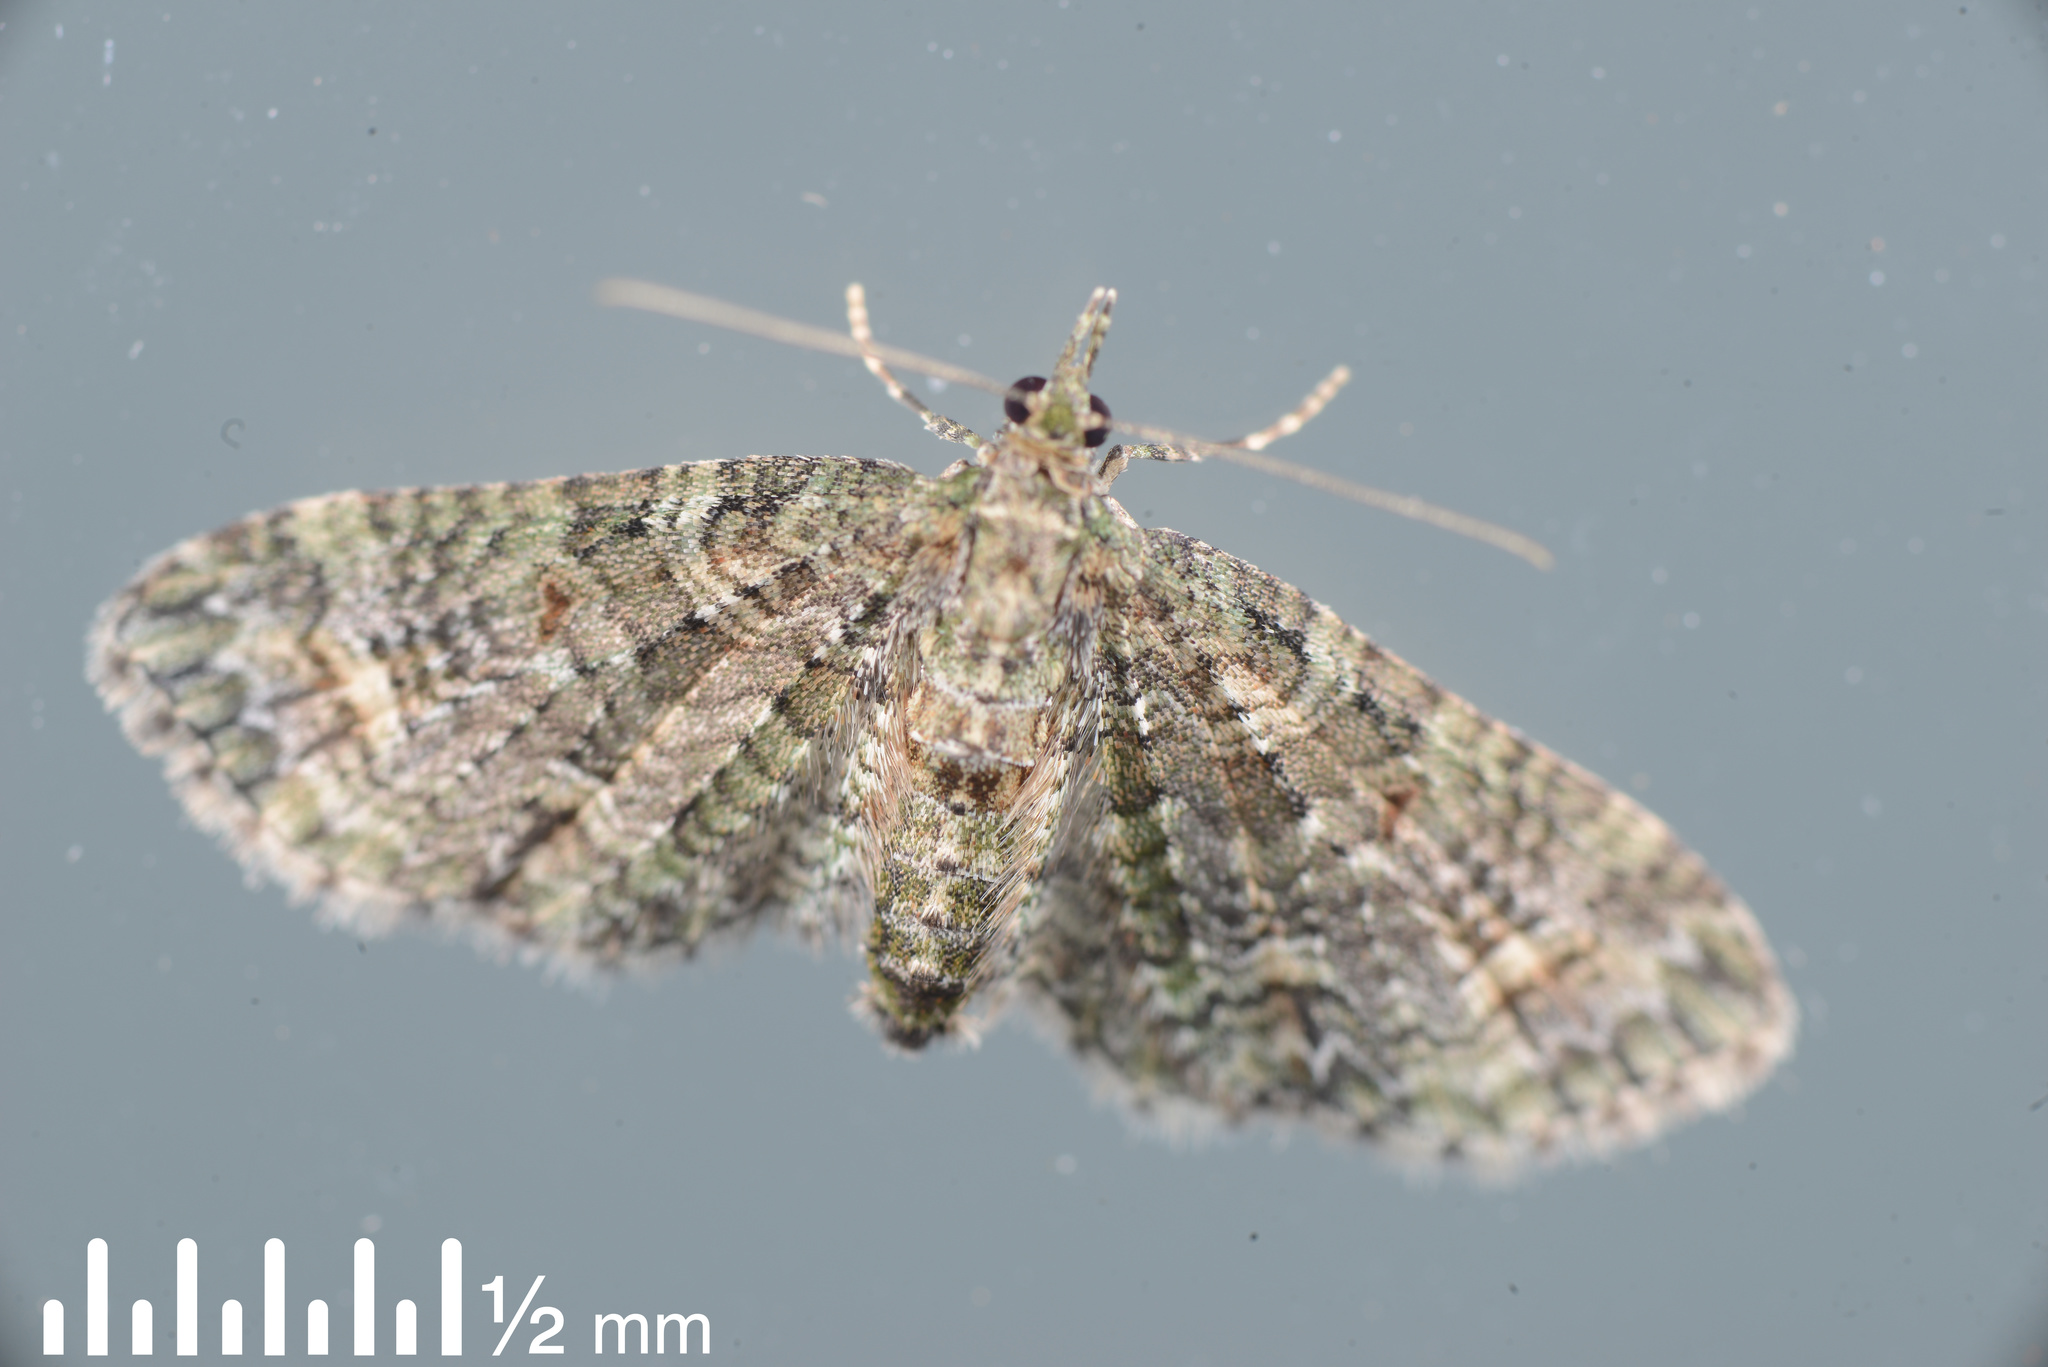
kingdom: Animalia
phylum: Arthropoda
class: Insecta
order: Lepidoptera
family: Geometridae
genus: Idaea
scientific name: Idaea mutanda
